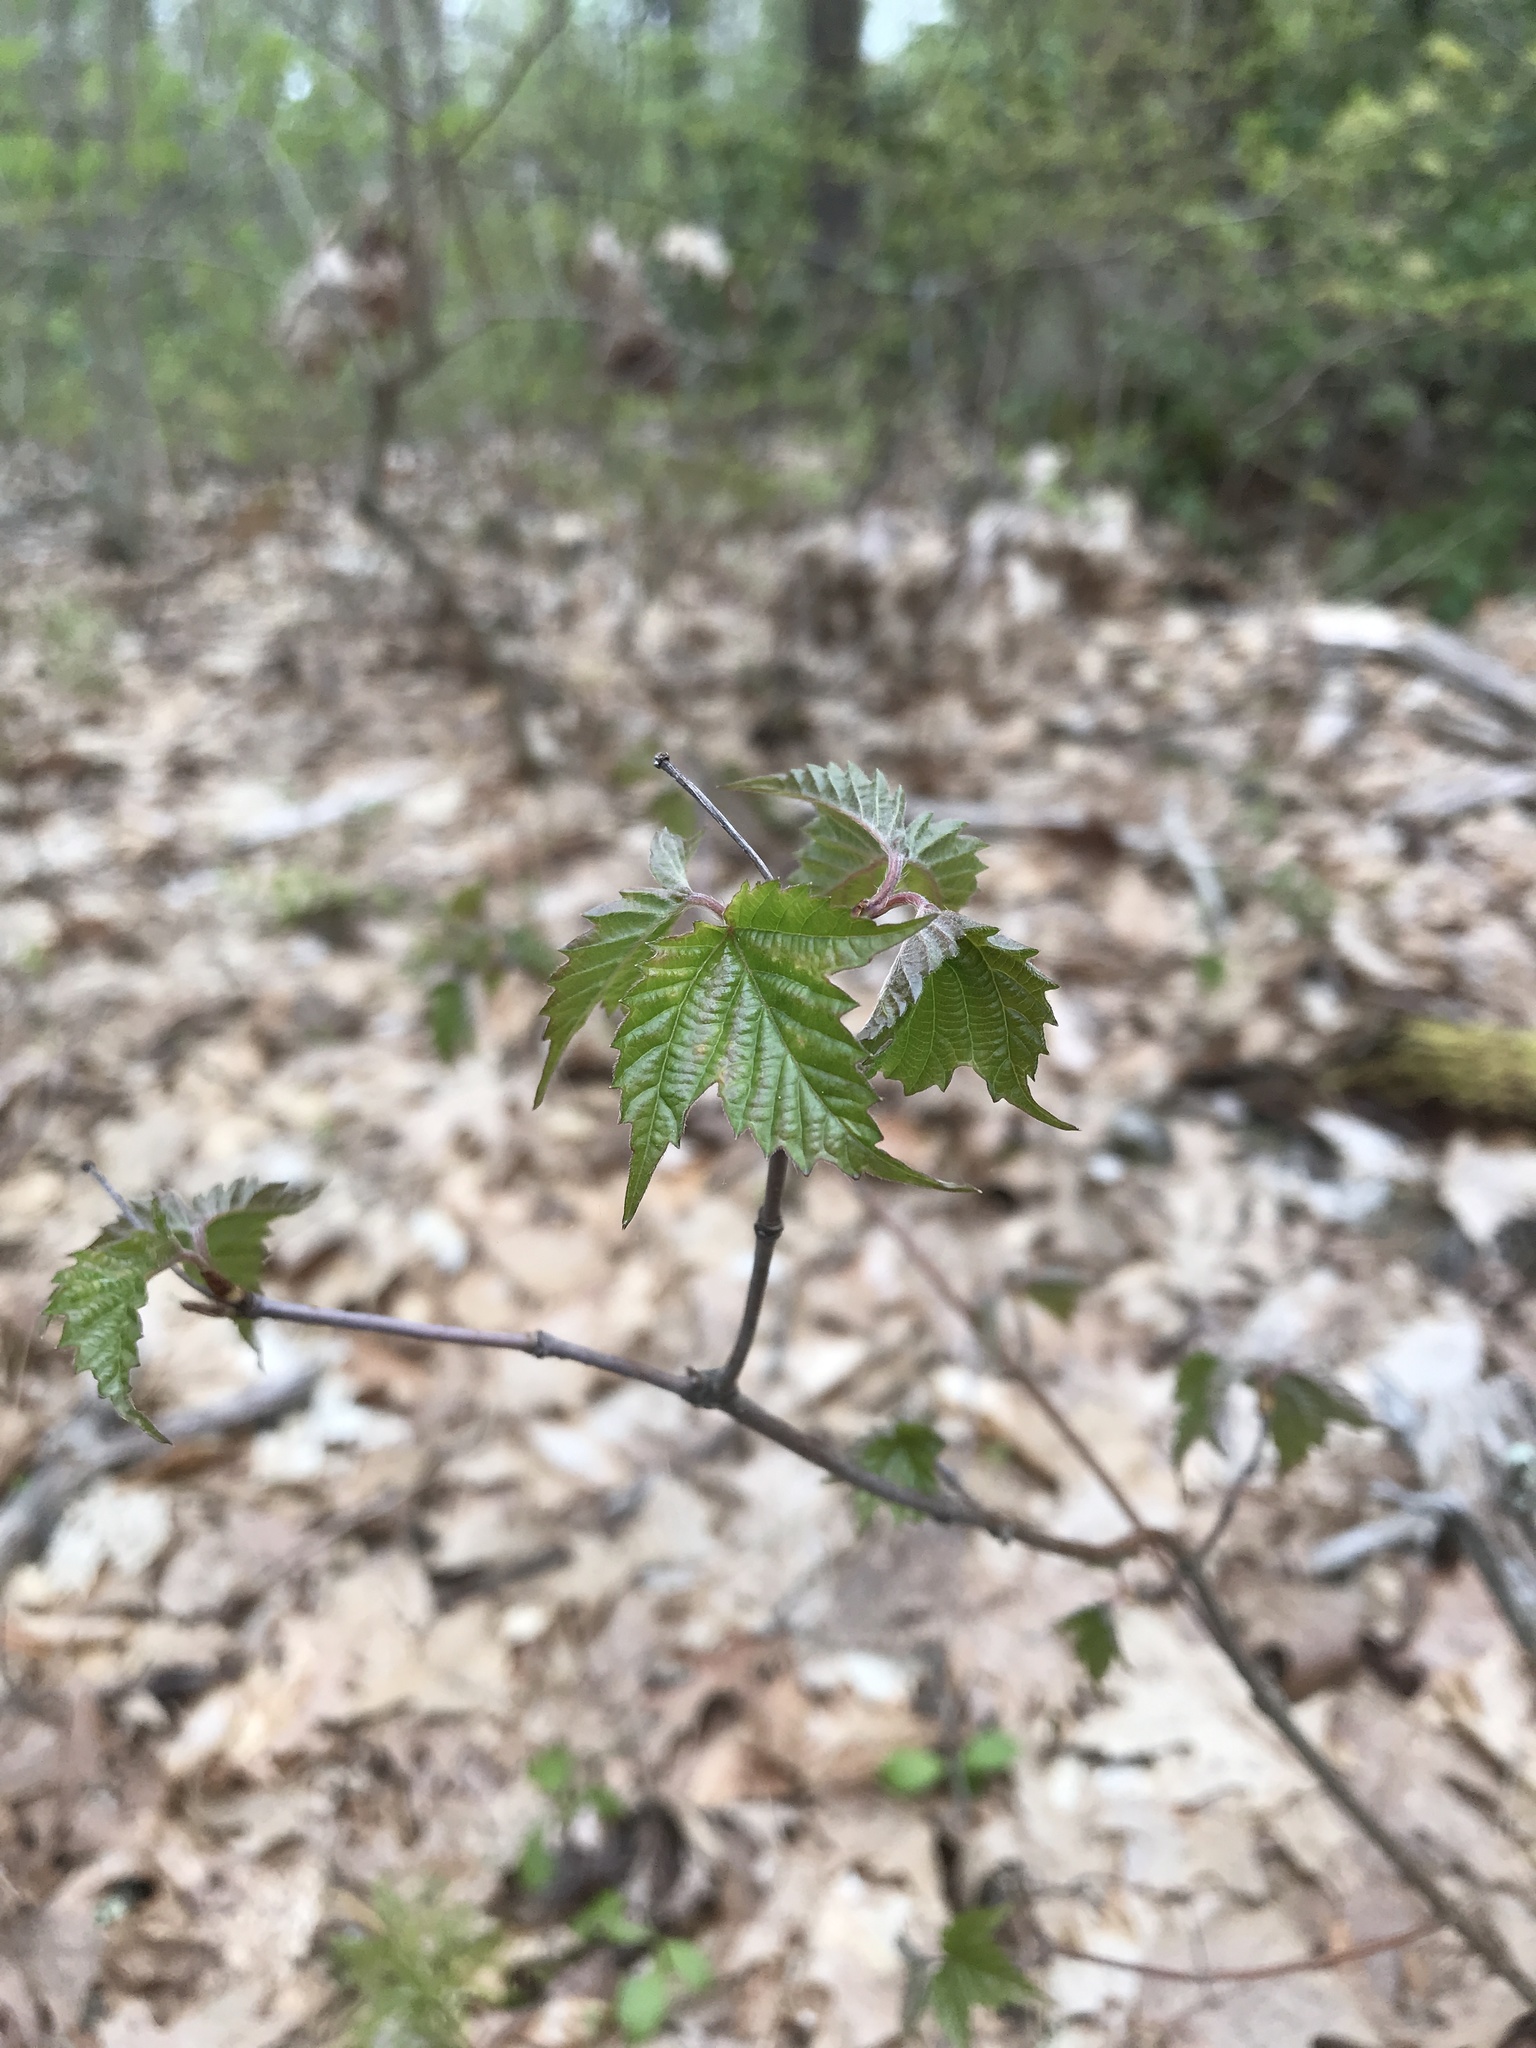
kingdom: Plantae
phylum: Tracheophyta
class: Magnoliopsida
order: Dipsacales
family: Viburnaceae
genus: Viburnum
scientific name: Viburnum acerifolium
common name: Dockmackie
